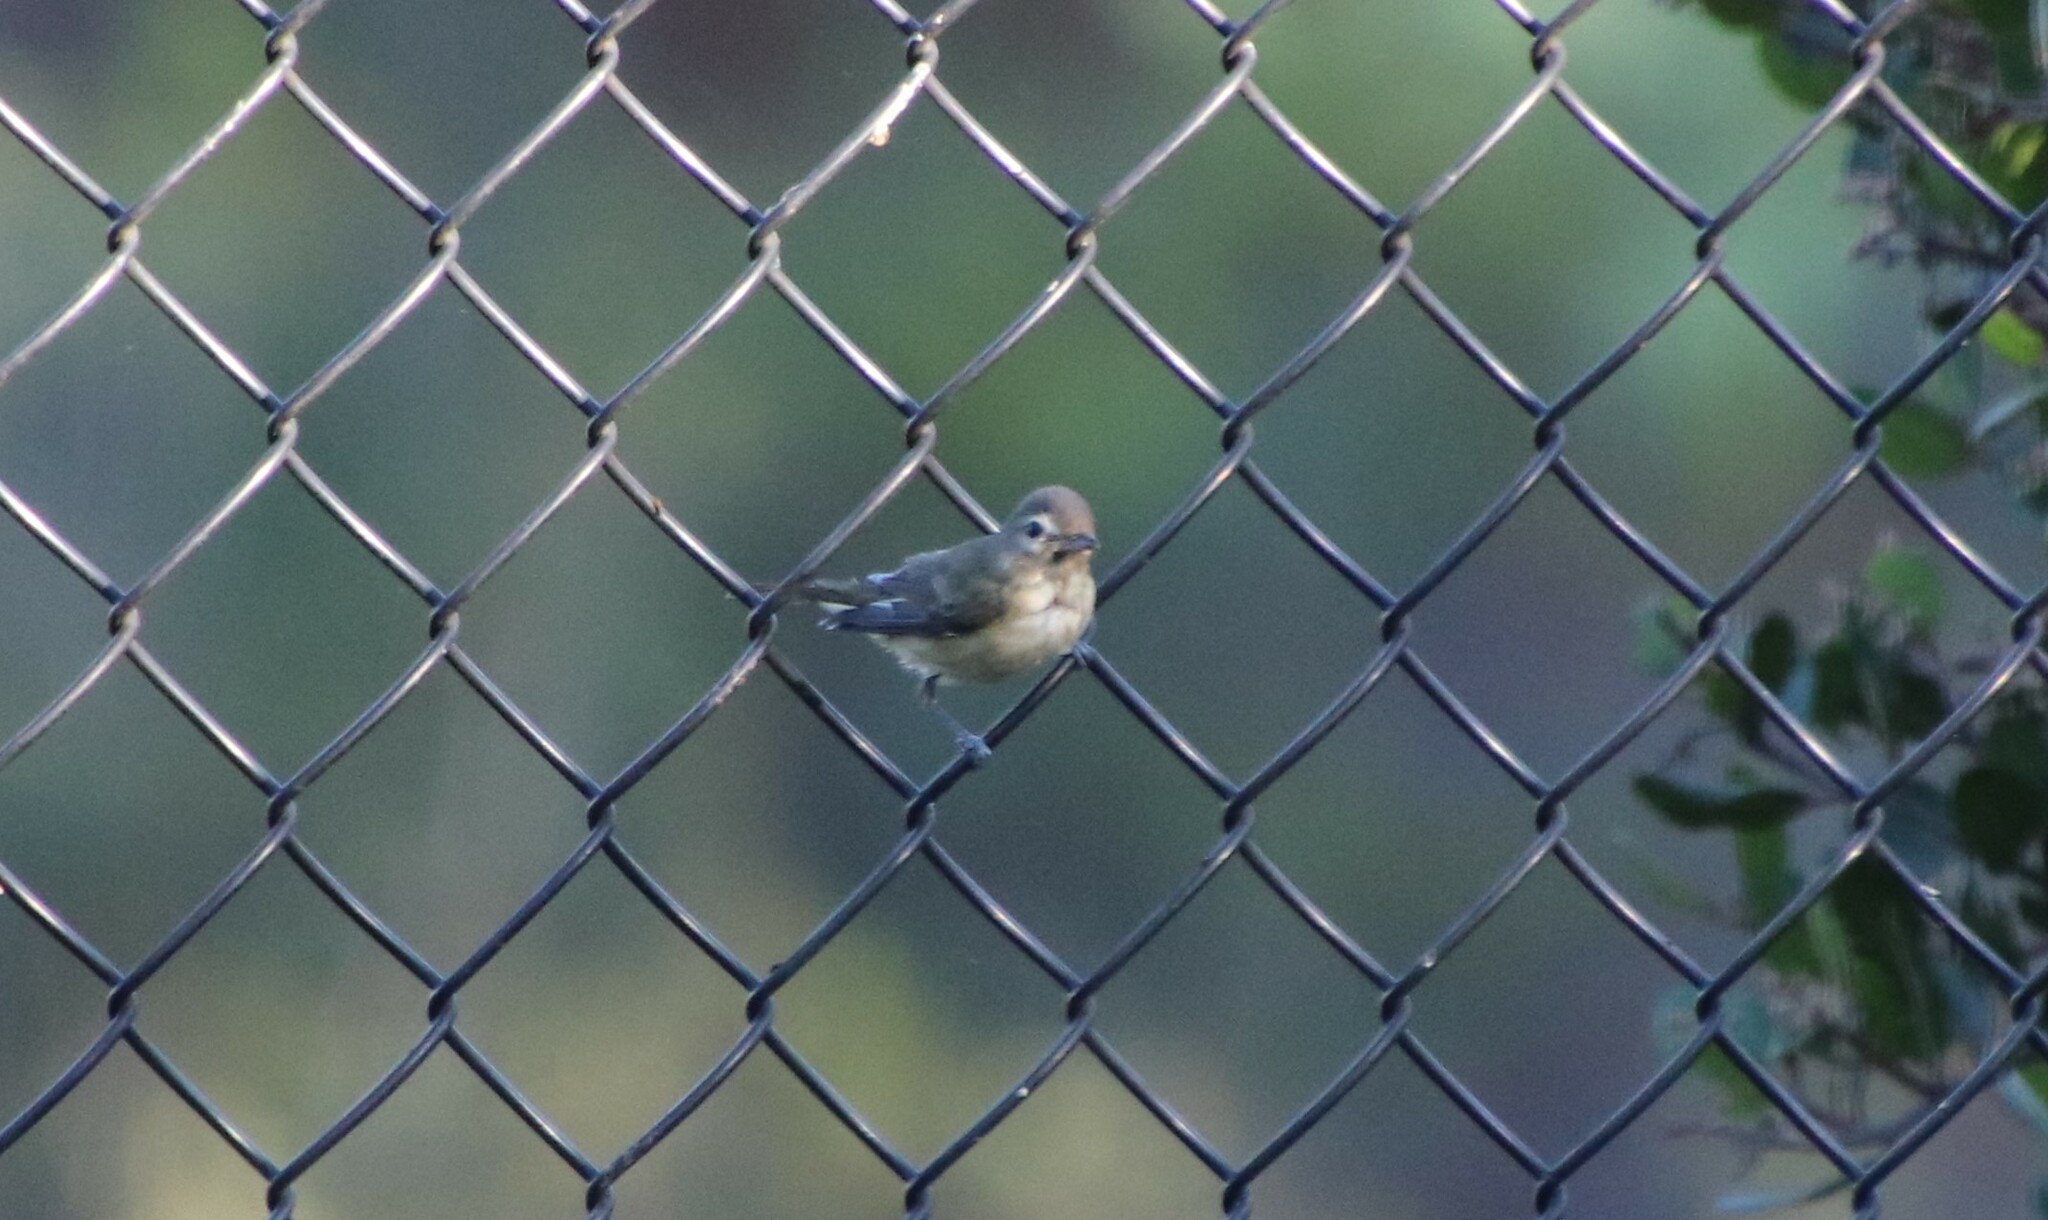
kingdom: Animalia
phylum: Chordata
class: Aves
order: Passeriformes
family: Vireonidae
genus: Vireo
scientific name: Vireo gilvus
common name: Warbling vireo
